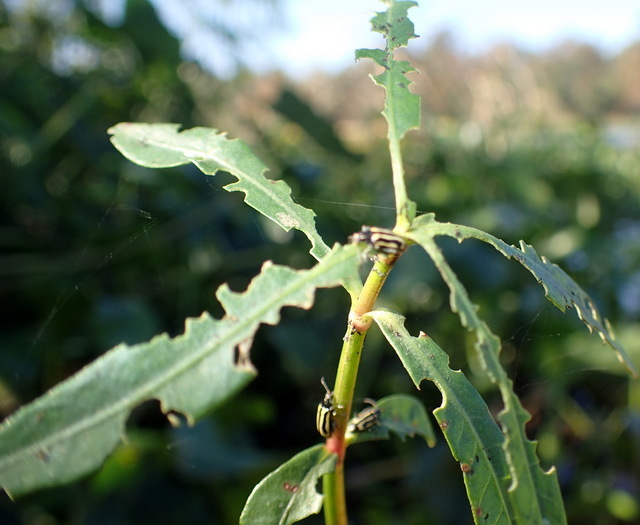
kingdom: Animalia
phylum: Arthropoda
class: Insecta
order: Coleoptera
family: Chrysomelidae
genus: Agasicles
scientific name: Agasicles hygrophila
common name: Alligatorweed flea beetle
